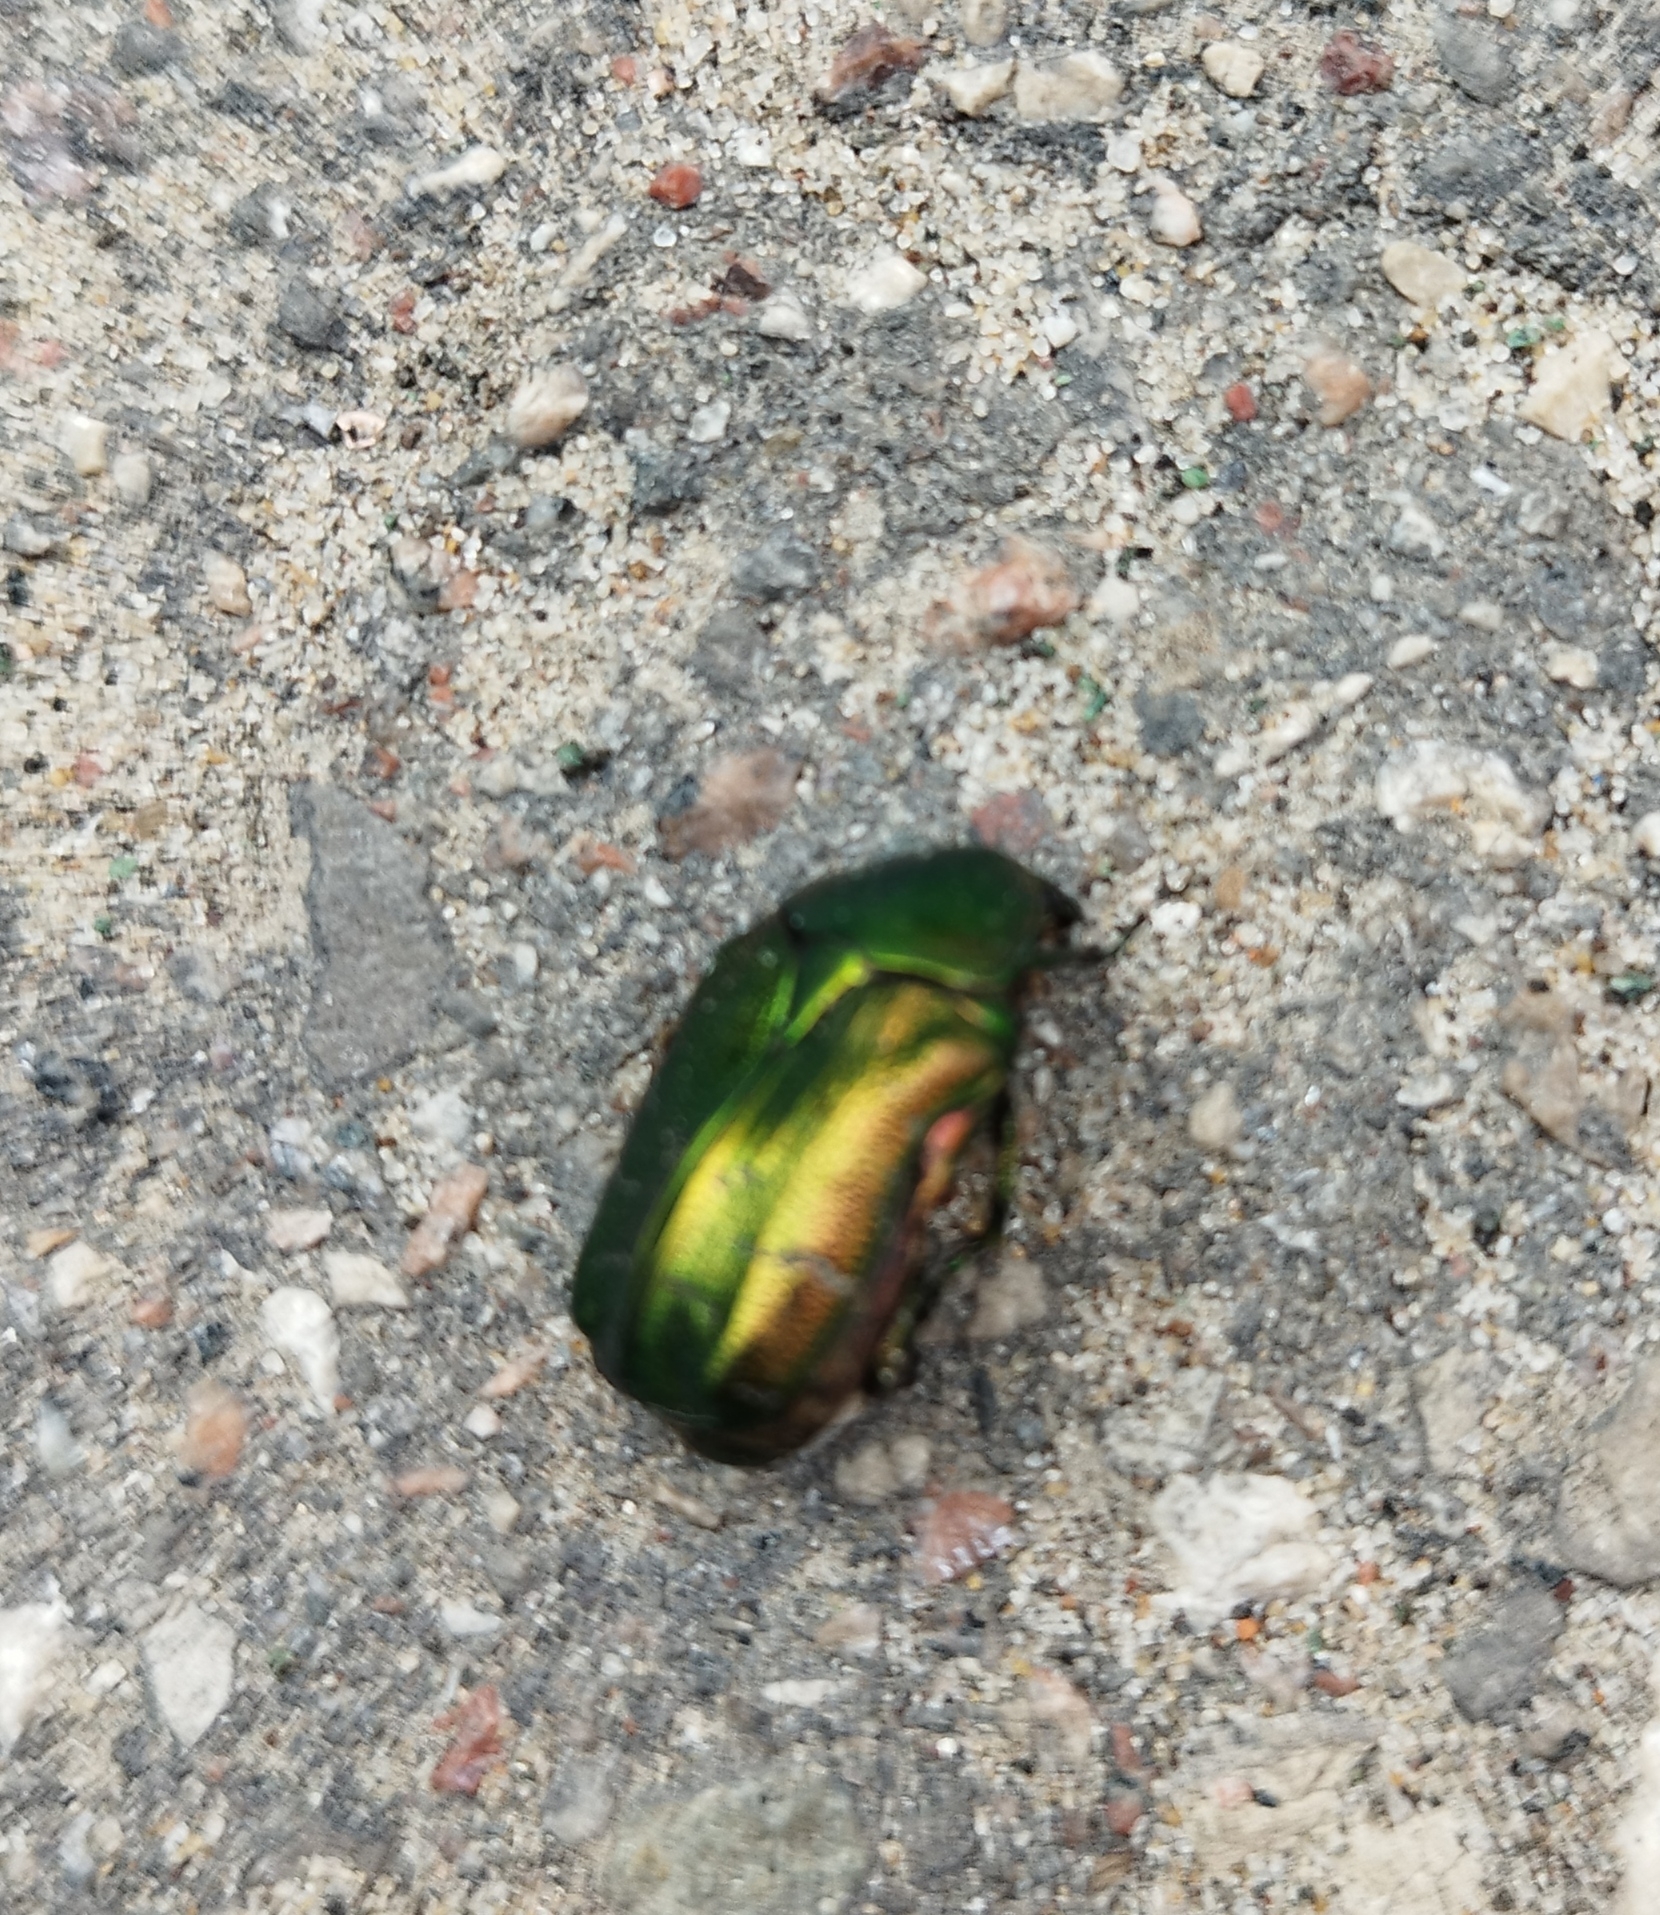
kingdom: Animalia
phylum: Arthropoda
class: Insecta
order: Coleoptera
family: Scarabaeidae
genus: Cetonia
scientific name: Cetonia aurata
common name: Rose chafer
